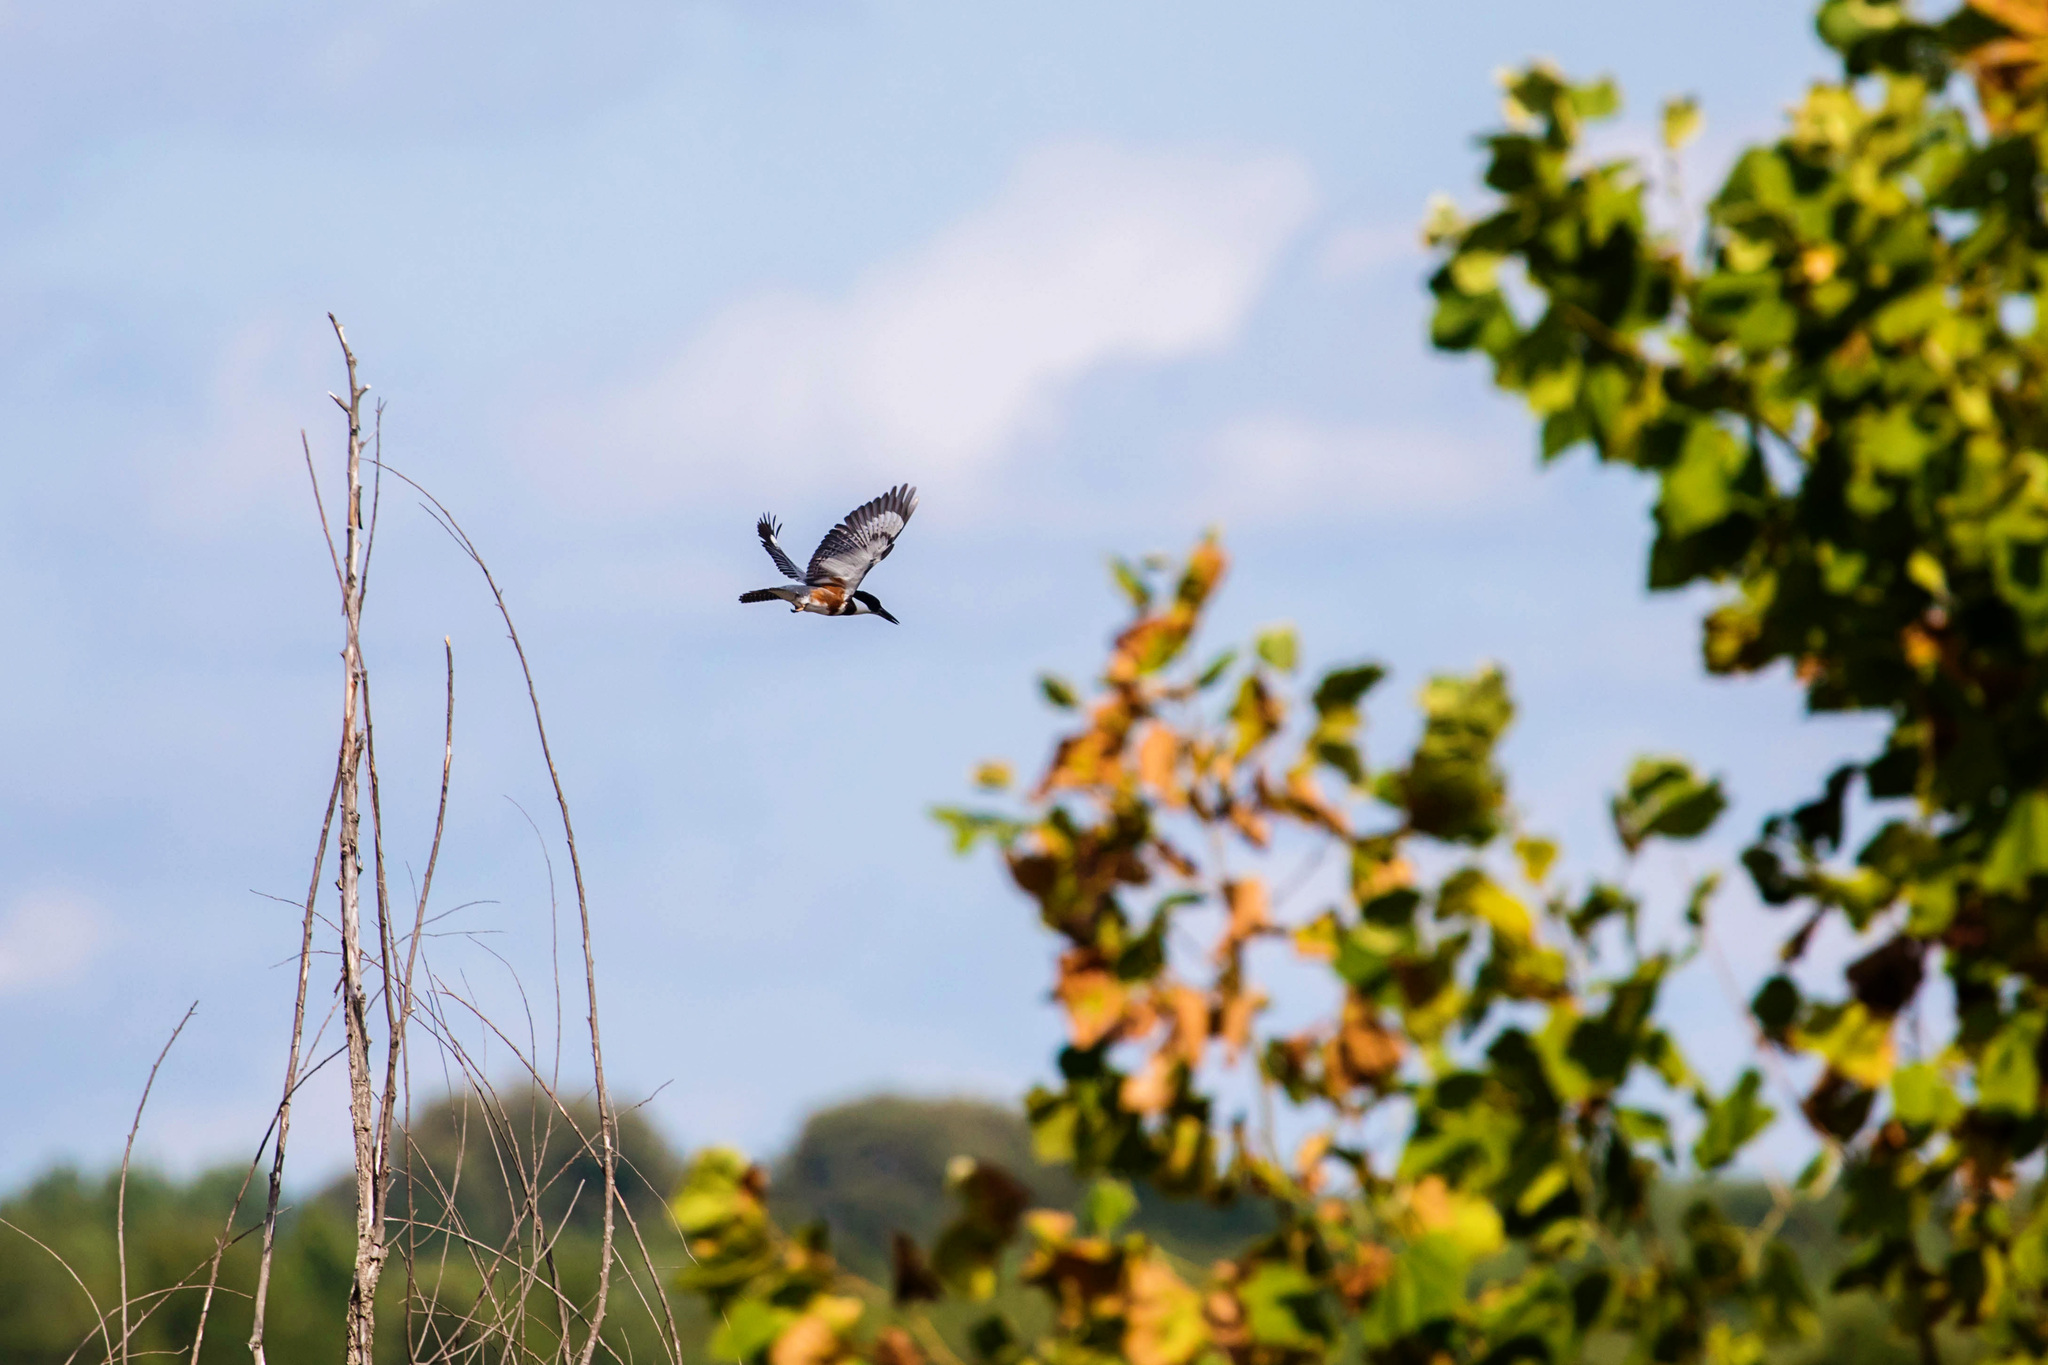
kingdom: Animalia
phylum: Chordata
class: Aves
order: Coraciiformes
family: Alcedinidae
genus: Megaceryle
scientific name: Megaceryle alcyon
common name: Belted kingfisher
